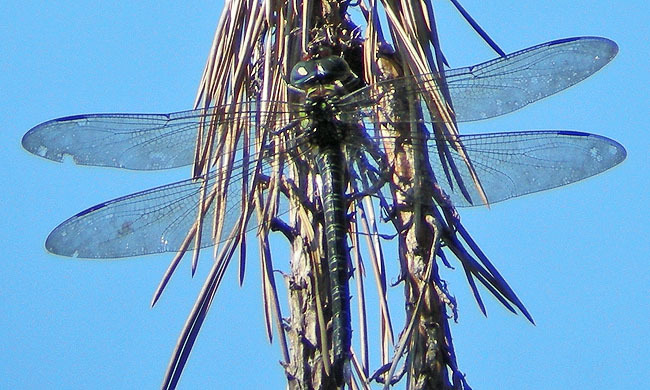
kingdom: Animalia
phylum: Arthropoda
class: Insecta
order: Odonata
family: Aeshnidae
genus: Epiaeschna
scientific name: Epiaeschna heros
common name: Swamp darner
